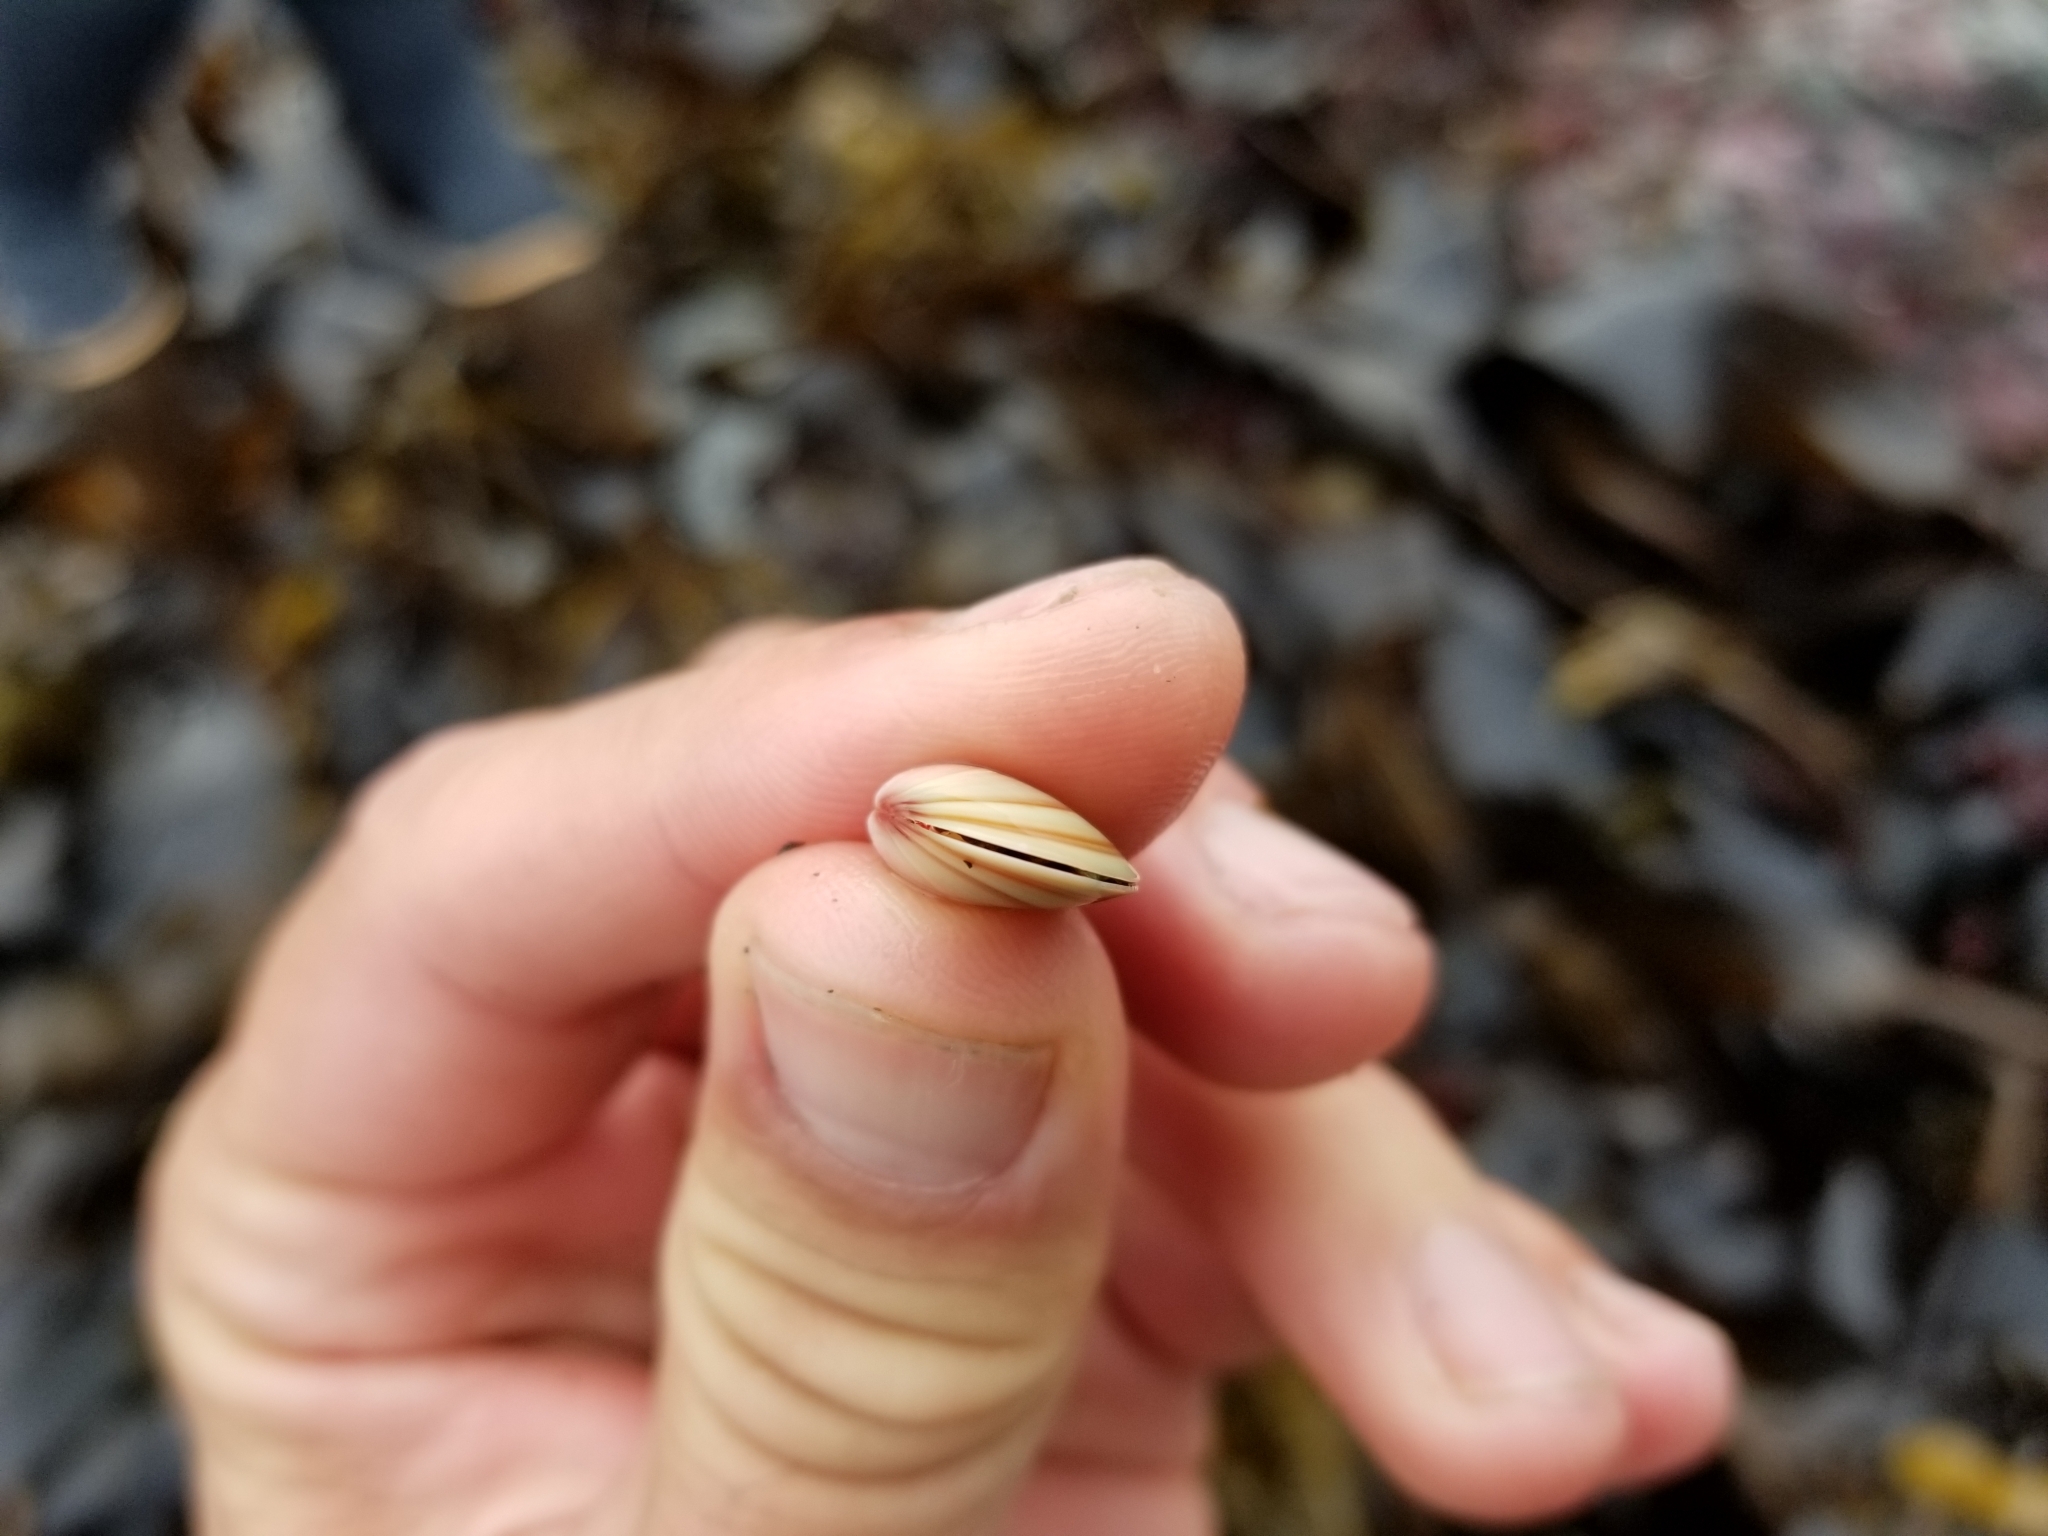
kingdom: Animalia
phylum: Mollusca
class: Bivalvia
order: Cardiida
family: Tellinidae
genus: Tellina
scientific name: Tellina nuculoides
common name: Salmon tellin
